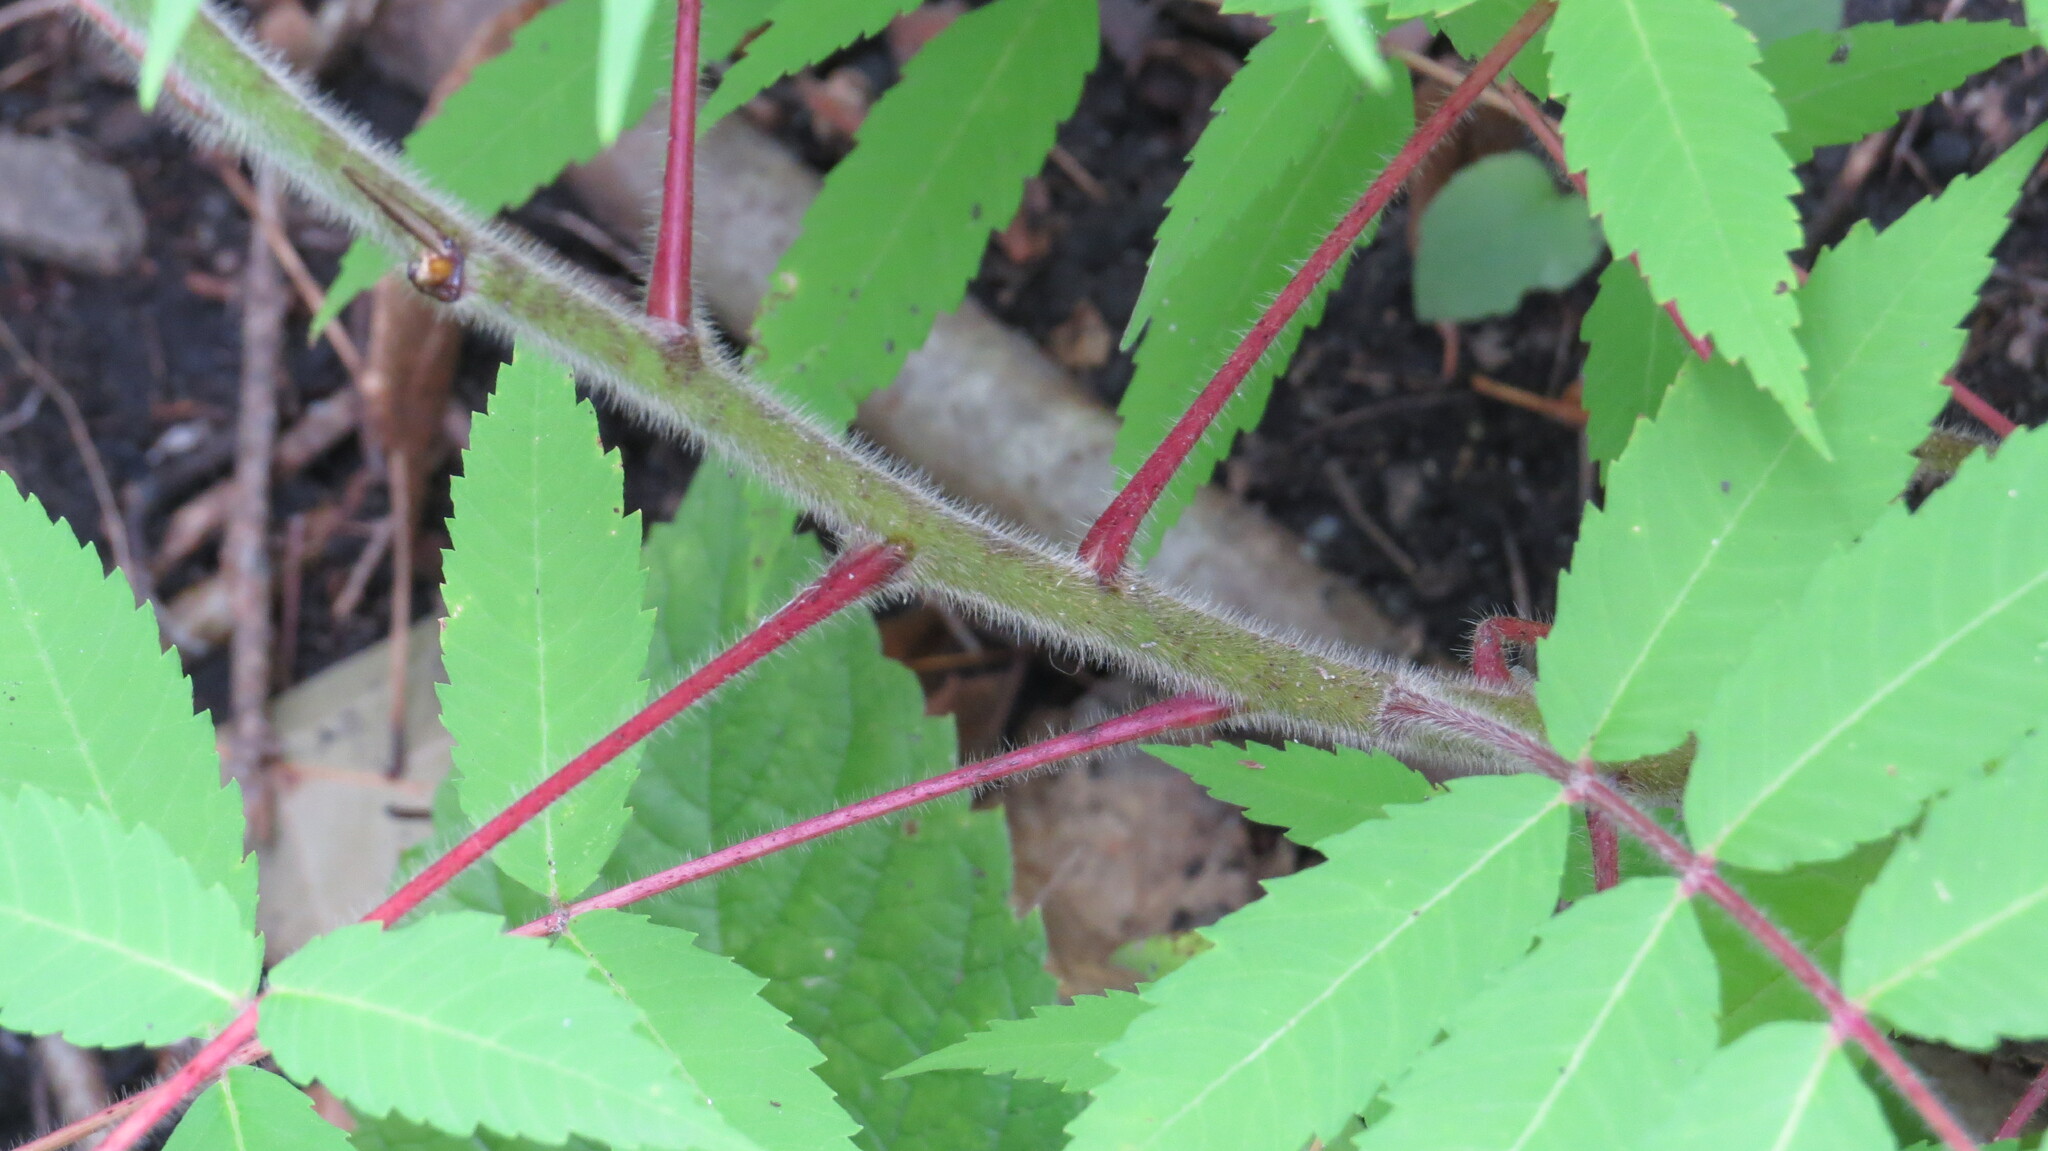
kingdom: Plantae
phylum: Tracheophyta
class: Magnoliopsida
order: Sapindales
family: Anacardiaceae
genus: Rhus
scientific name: Rhus typhina
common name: Staghorn sumac
